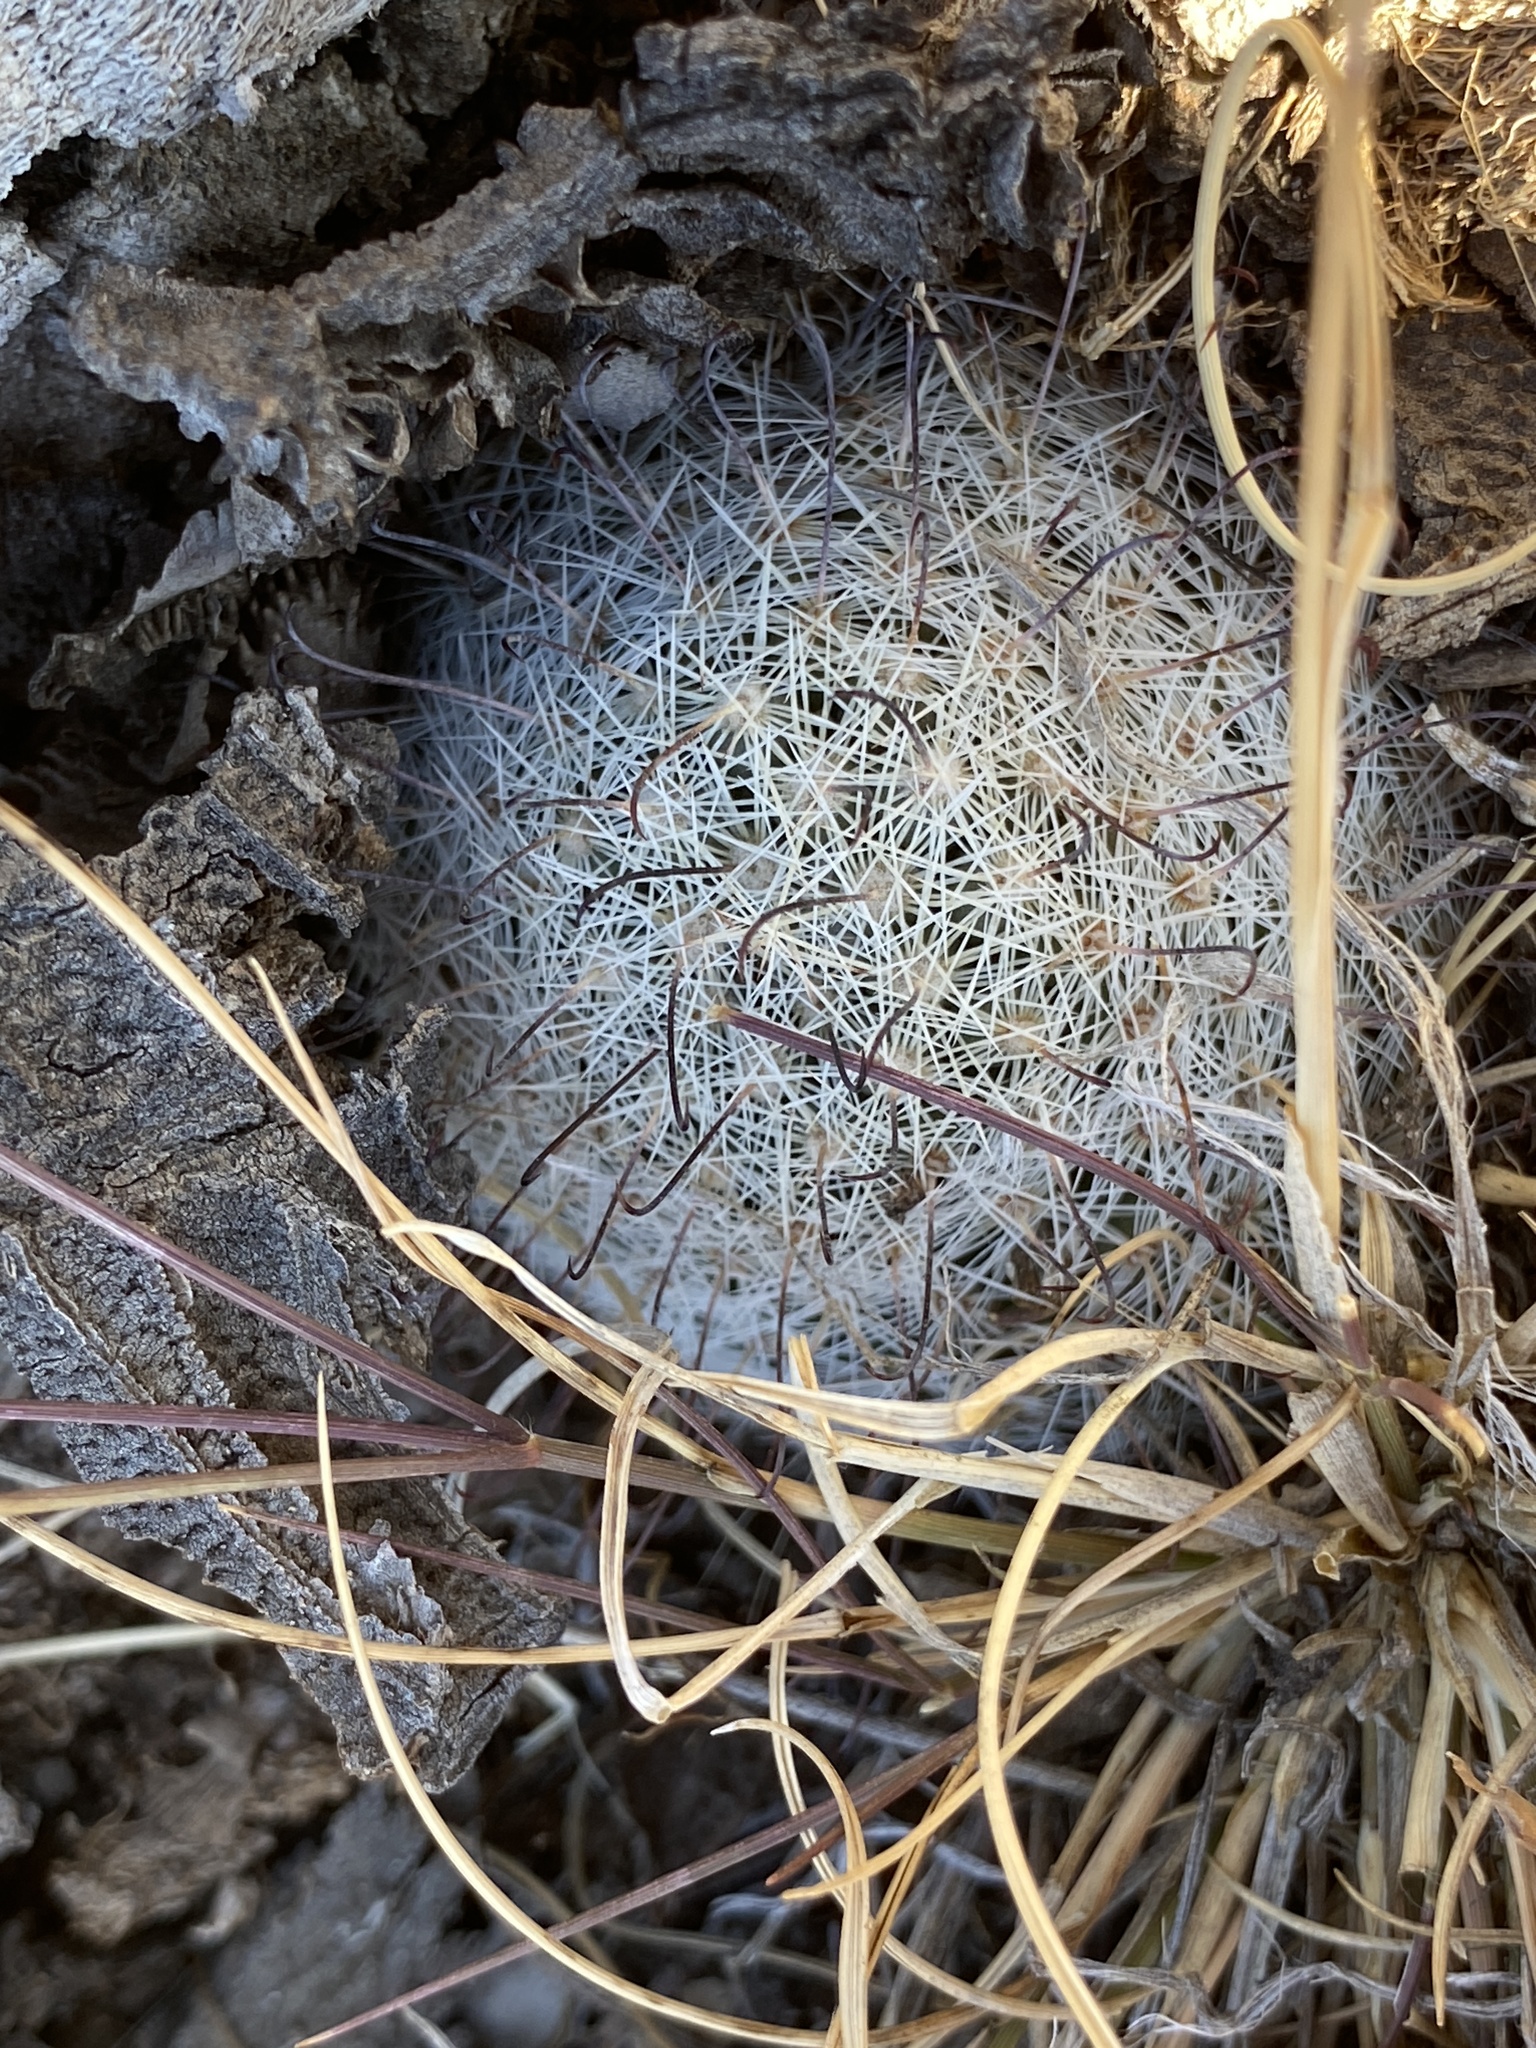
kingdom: Plantae
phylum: Tracheophyta
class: Magnoliopsida
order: Caryophyllales
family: Cactaceae
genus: Cochemiea
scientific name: Cochemiea grahamii
